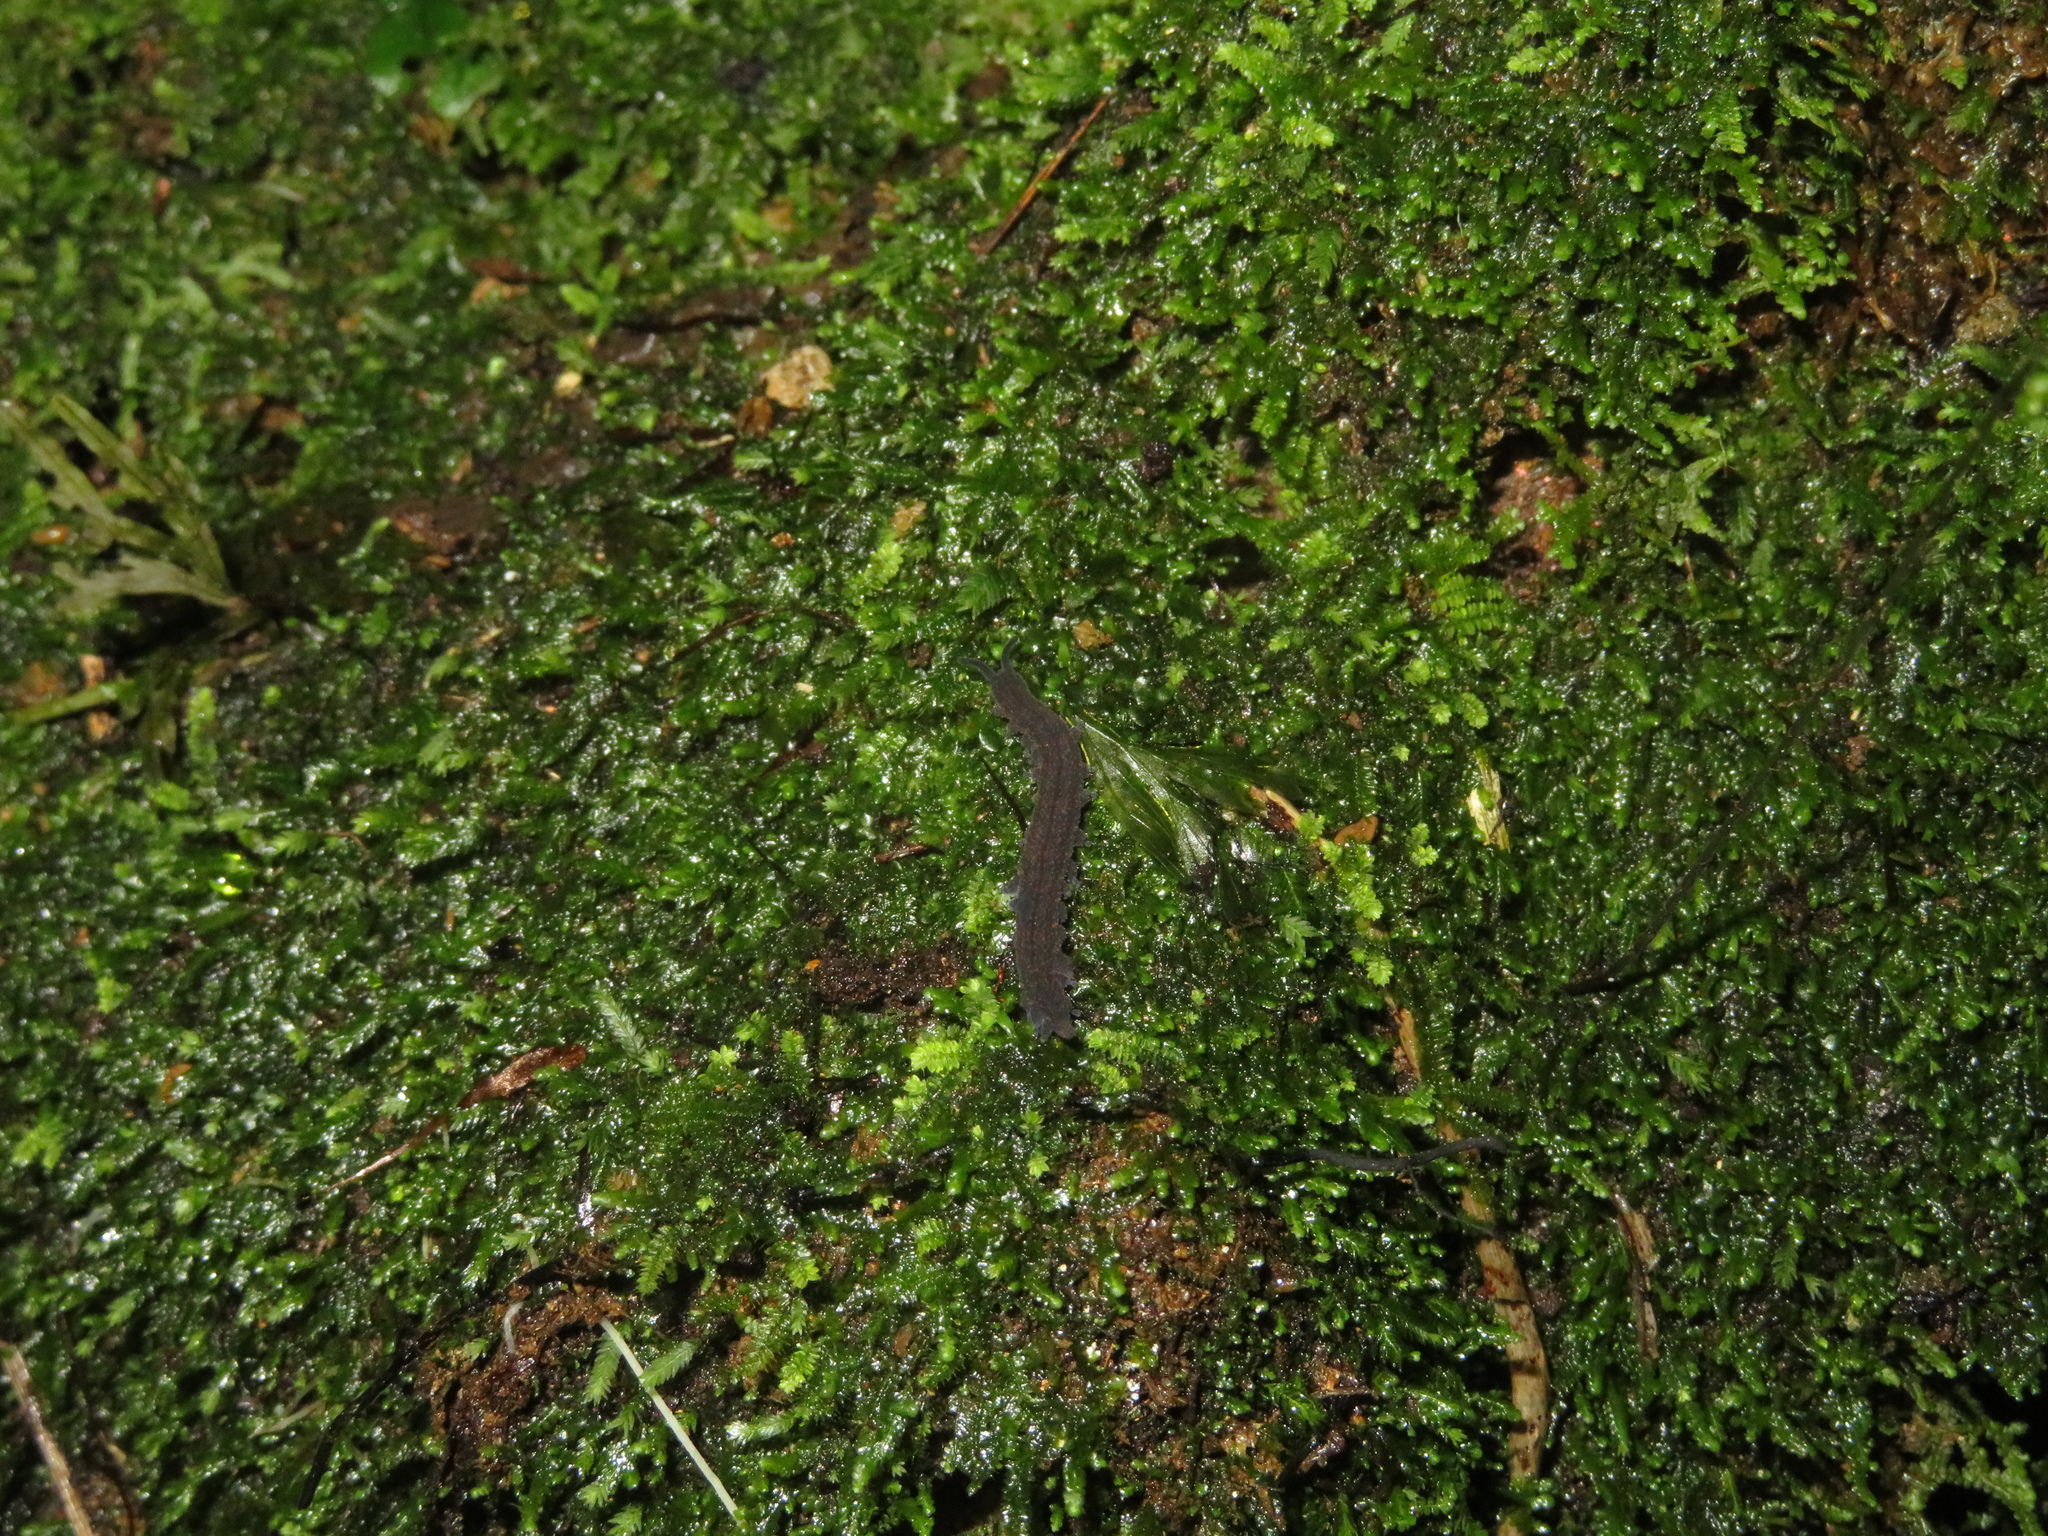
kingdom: Animalia
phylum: Onychophora
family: Peripatopsidae
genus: Peripatoides
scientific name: Peripatoides novaezealandiae
